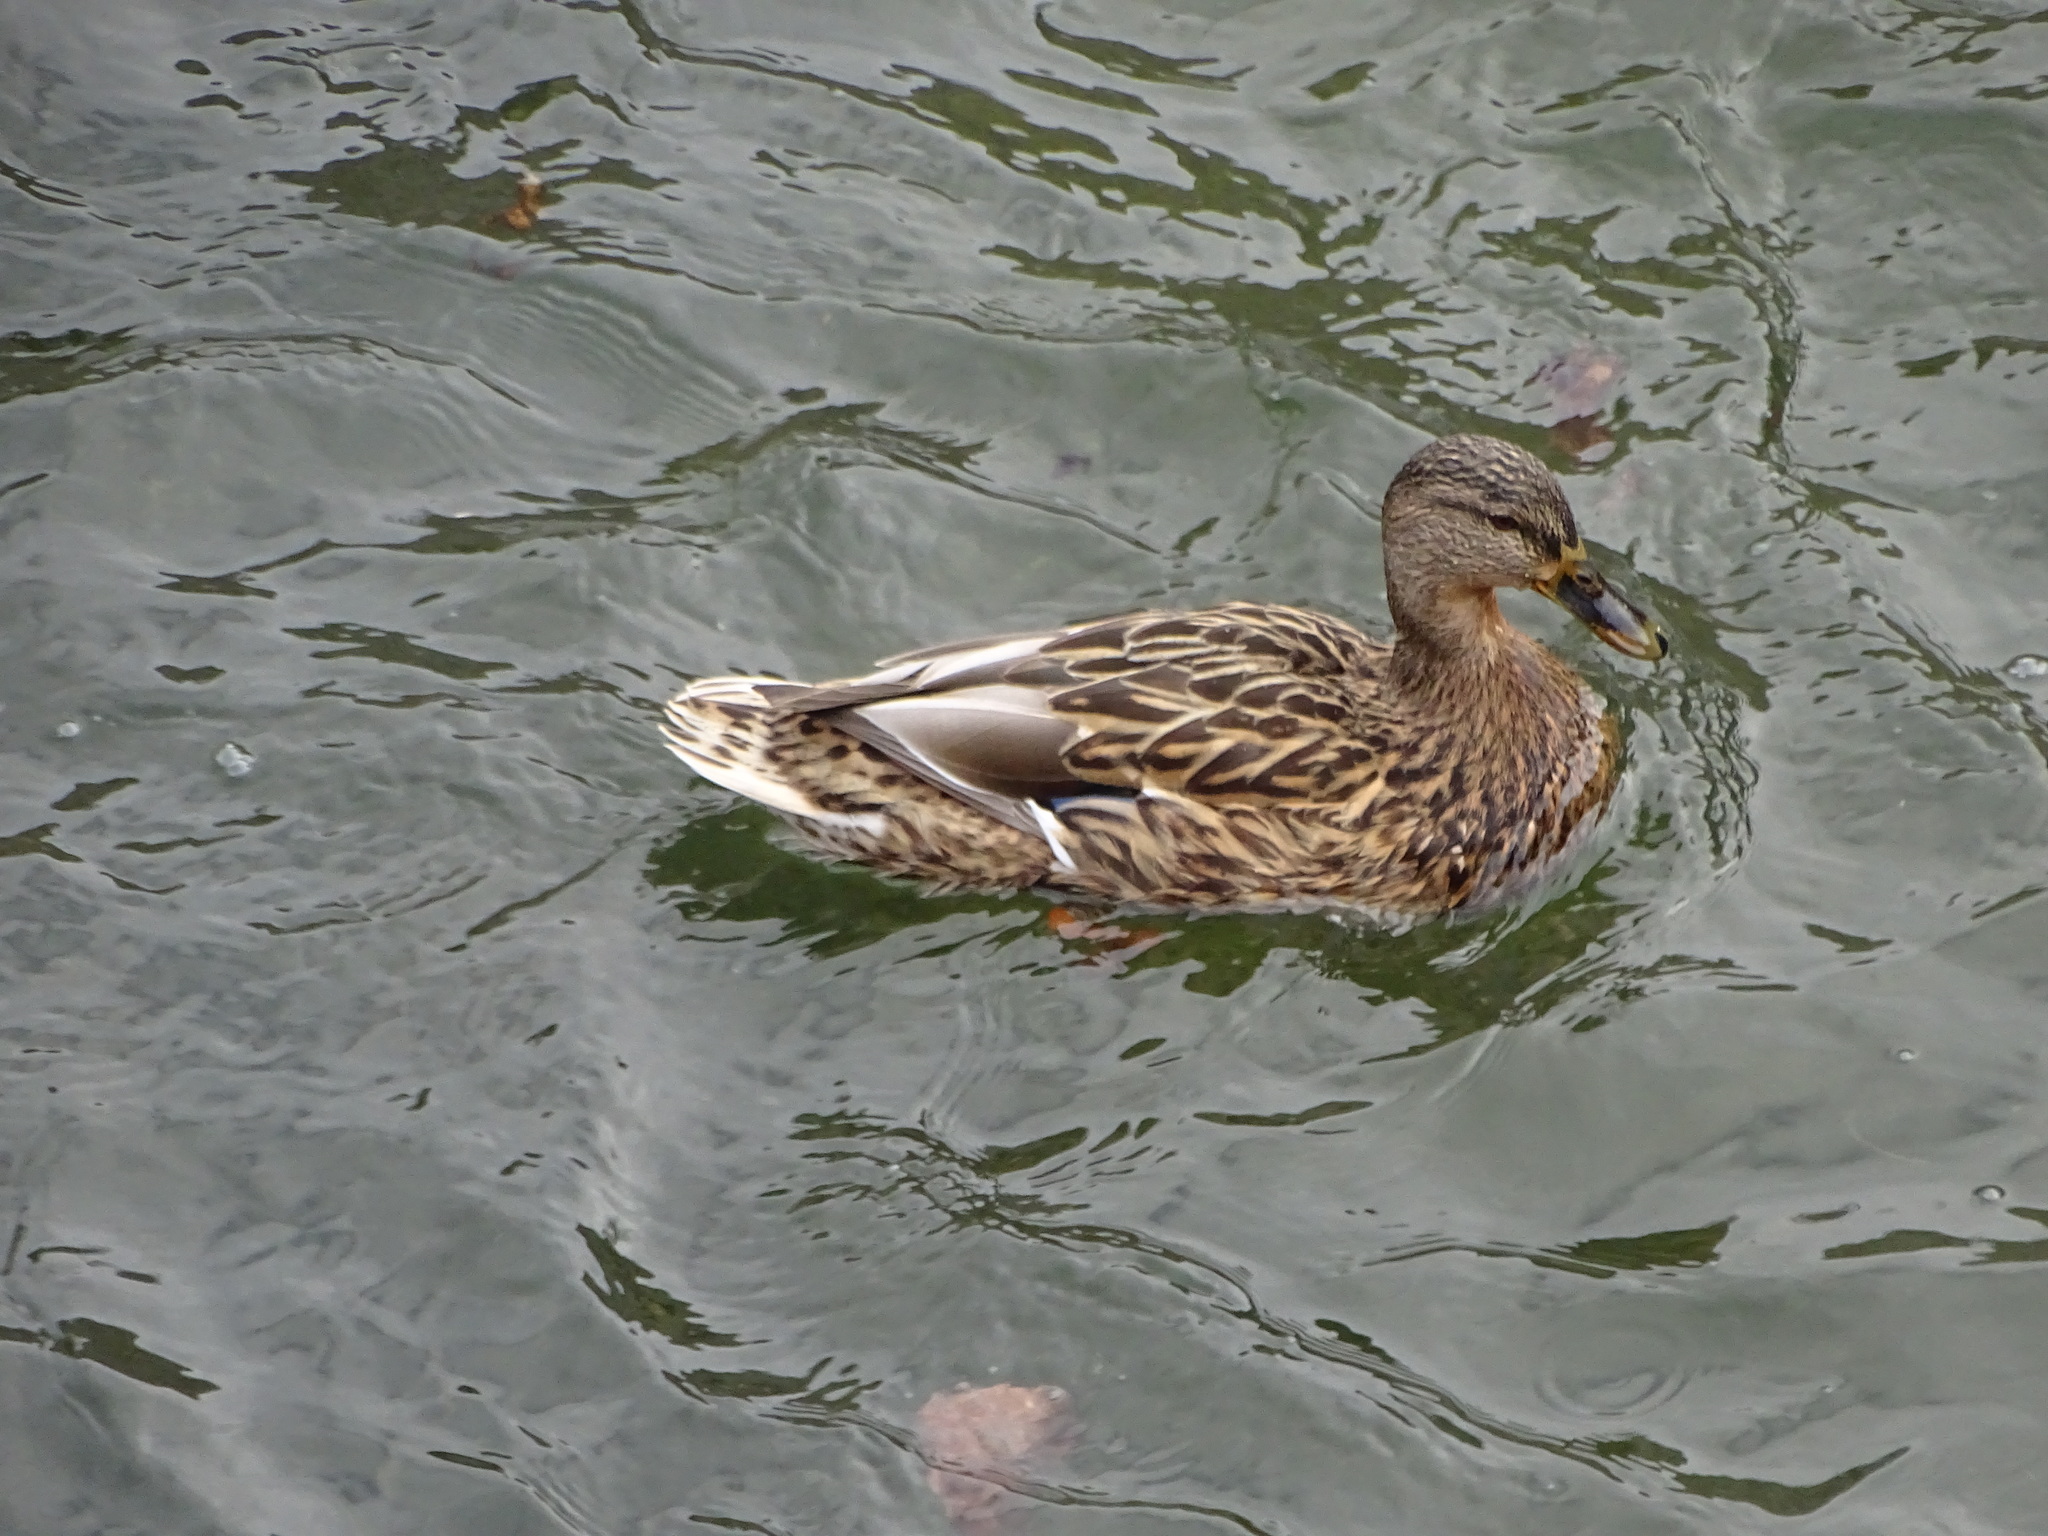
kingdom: Animalia
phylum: Chordata
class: Aves
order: Anseriformes
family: Anatidae
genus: Anas
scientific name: Anas platyrhynchos
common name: Mallard
